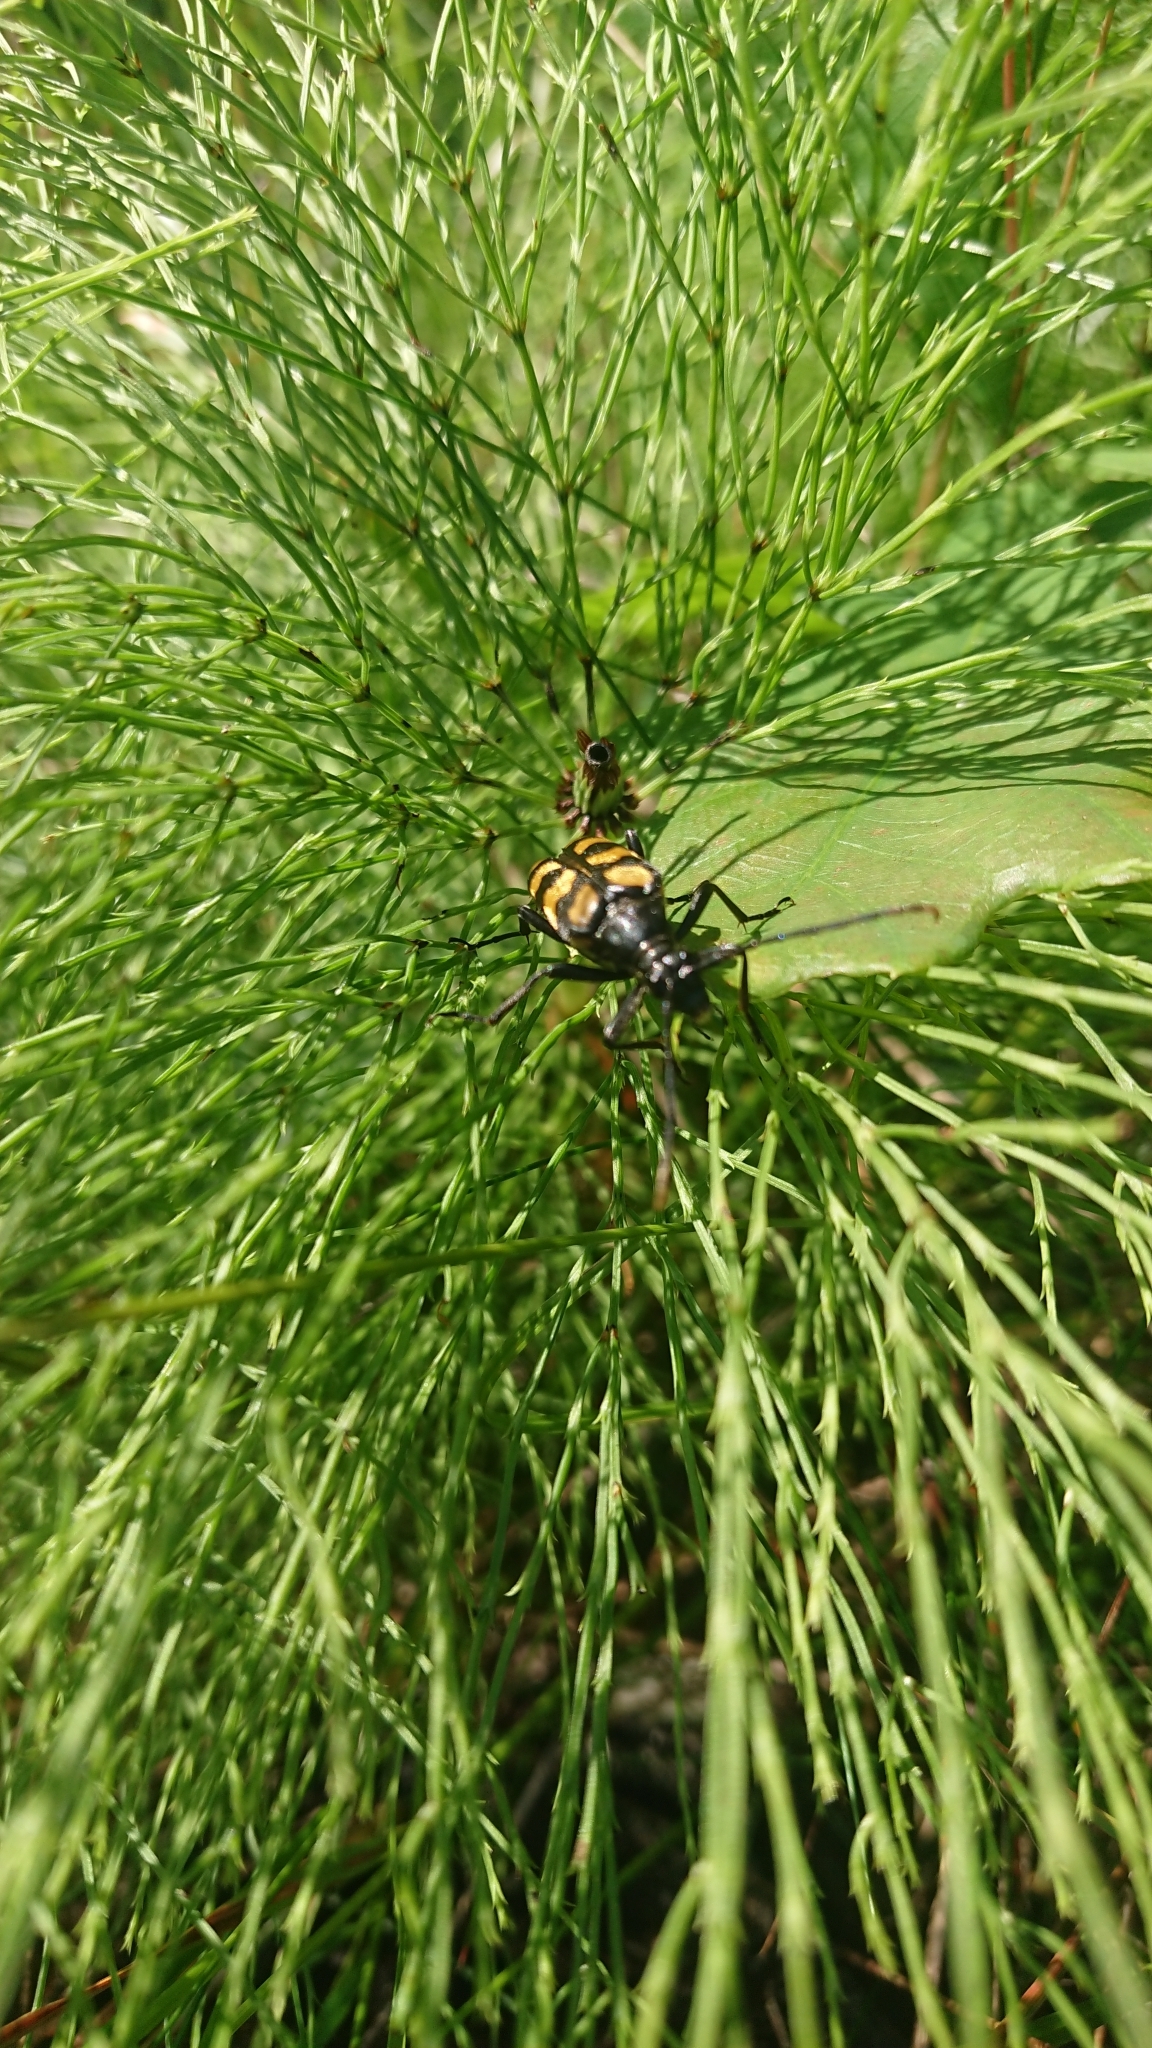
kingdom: Animalia
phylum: Arthropoda
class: Insecta
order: Coleoptera
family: Cerambycidae
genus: Leptura
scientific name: Leptura quadrifasciata
